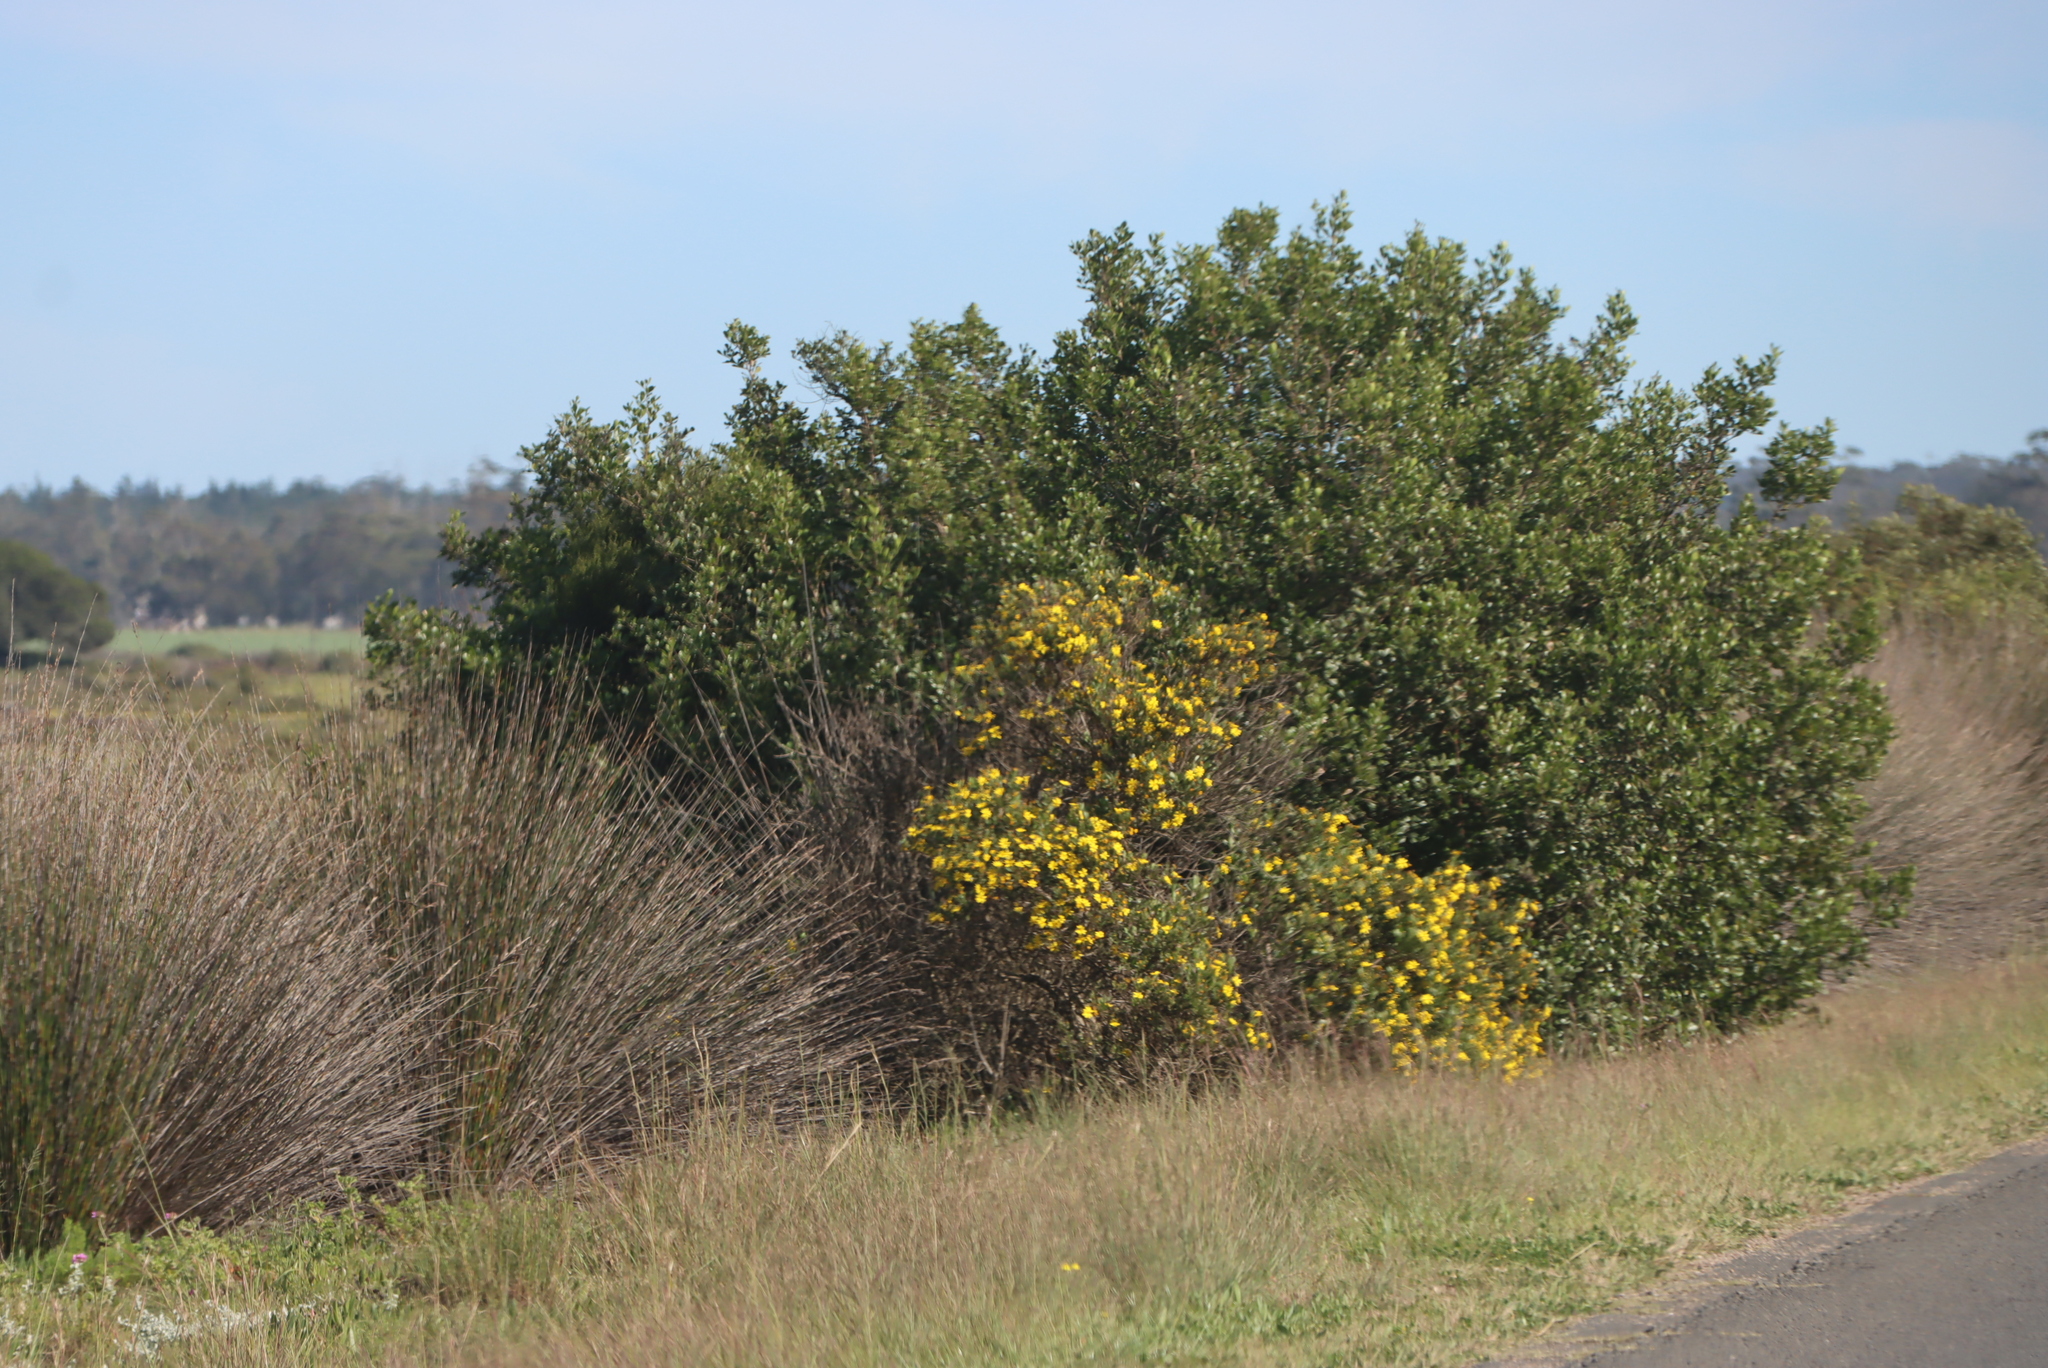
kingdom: Plantae
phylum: Tracheophyta
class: Magnoliopsida
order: Asterales
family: Asteraceae
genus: Osteospermum
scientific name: Osteospermum moniliferum
